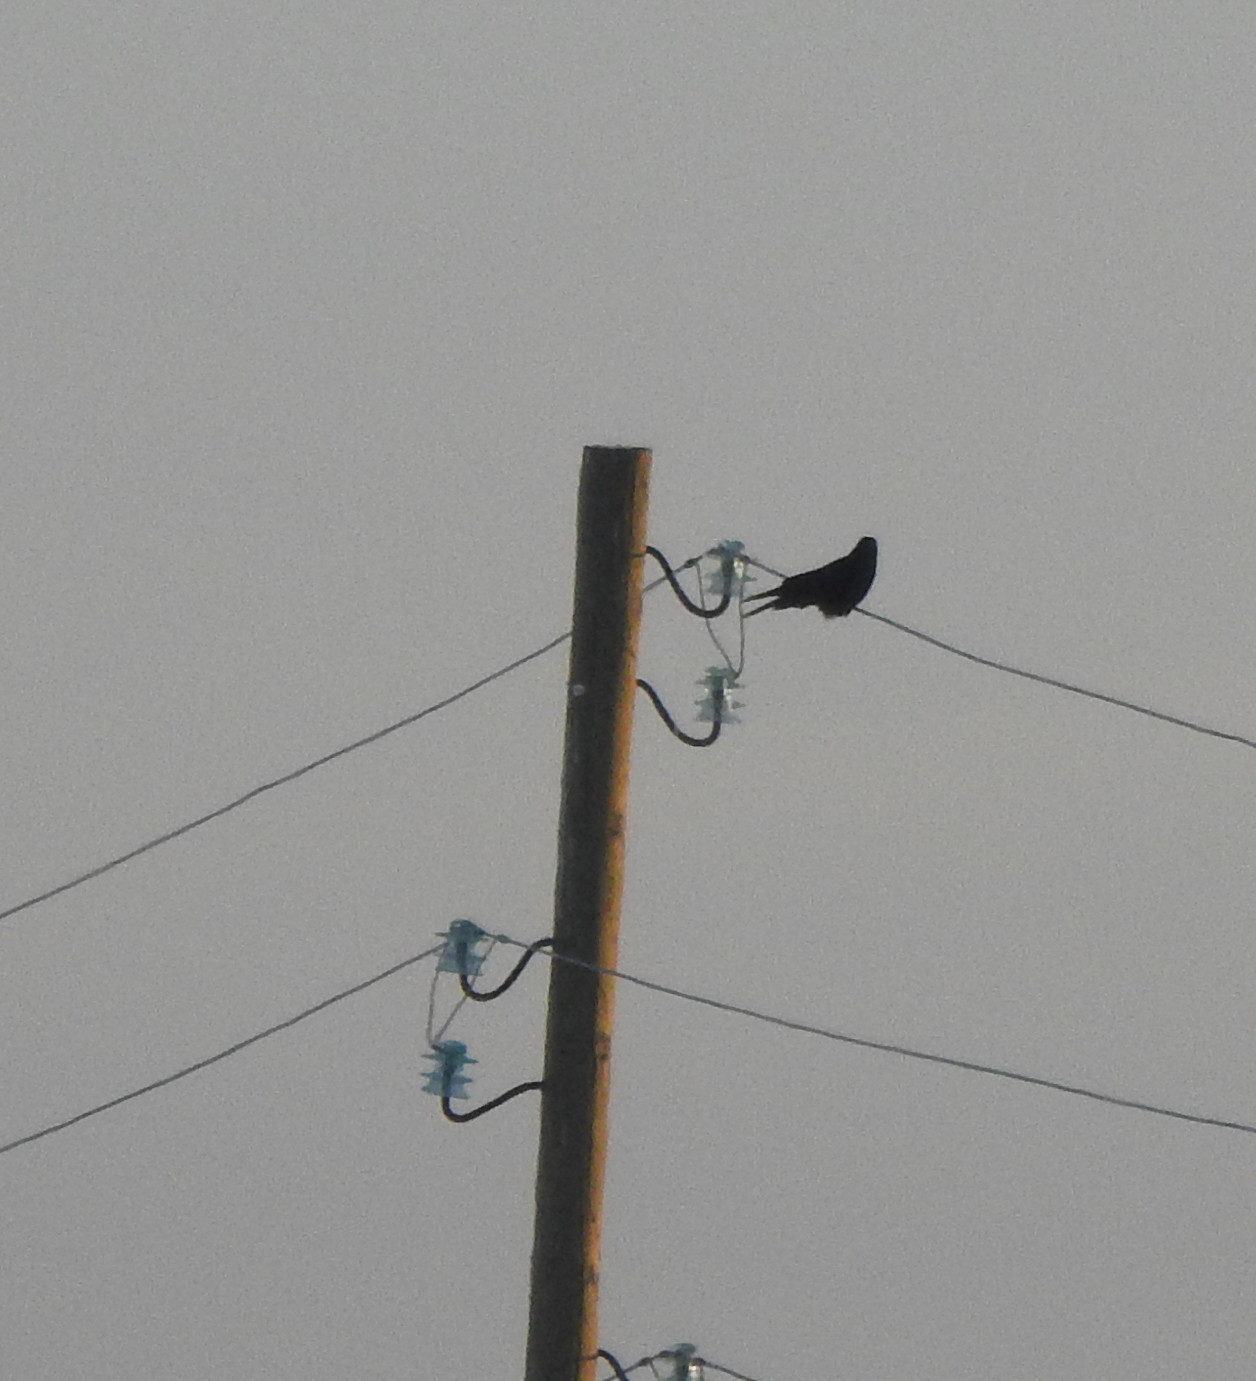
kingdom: Animalia
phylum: Chordata
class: Aves
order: Passeriformes
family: Corvidae
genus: Corvus
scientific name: Corvus corax
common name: Common raven
